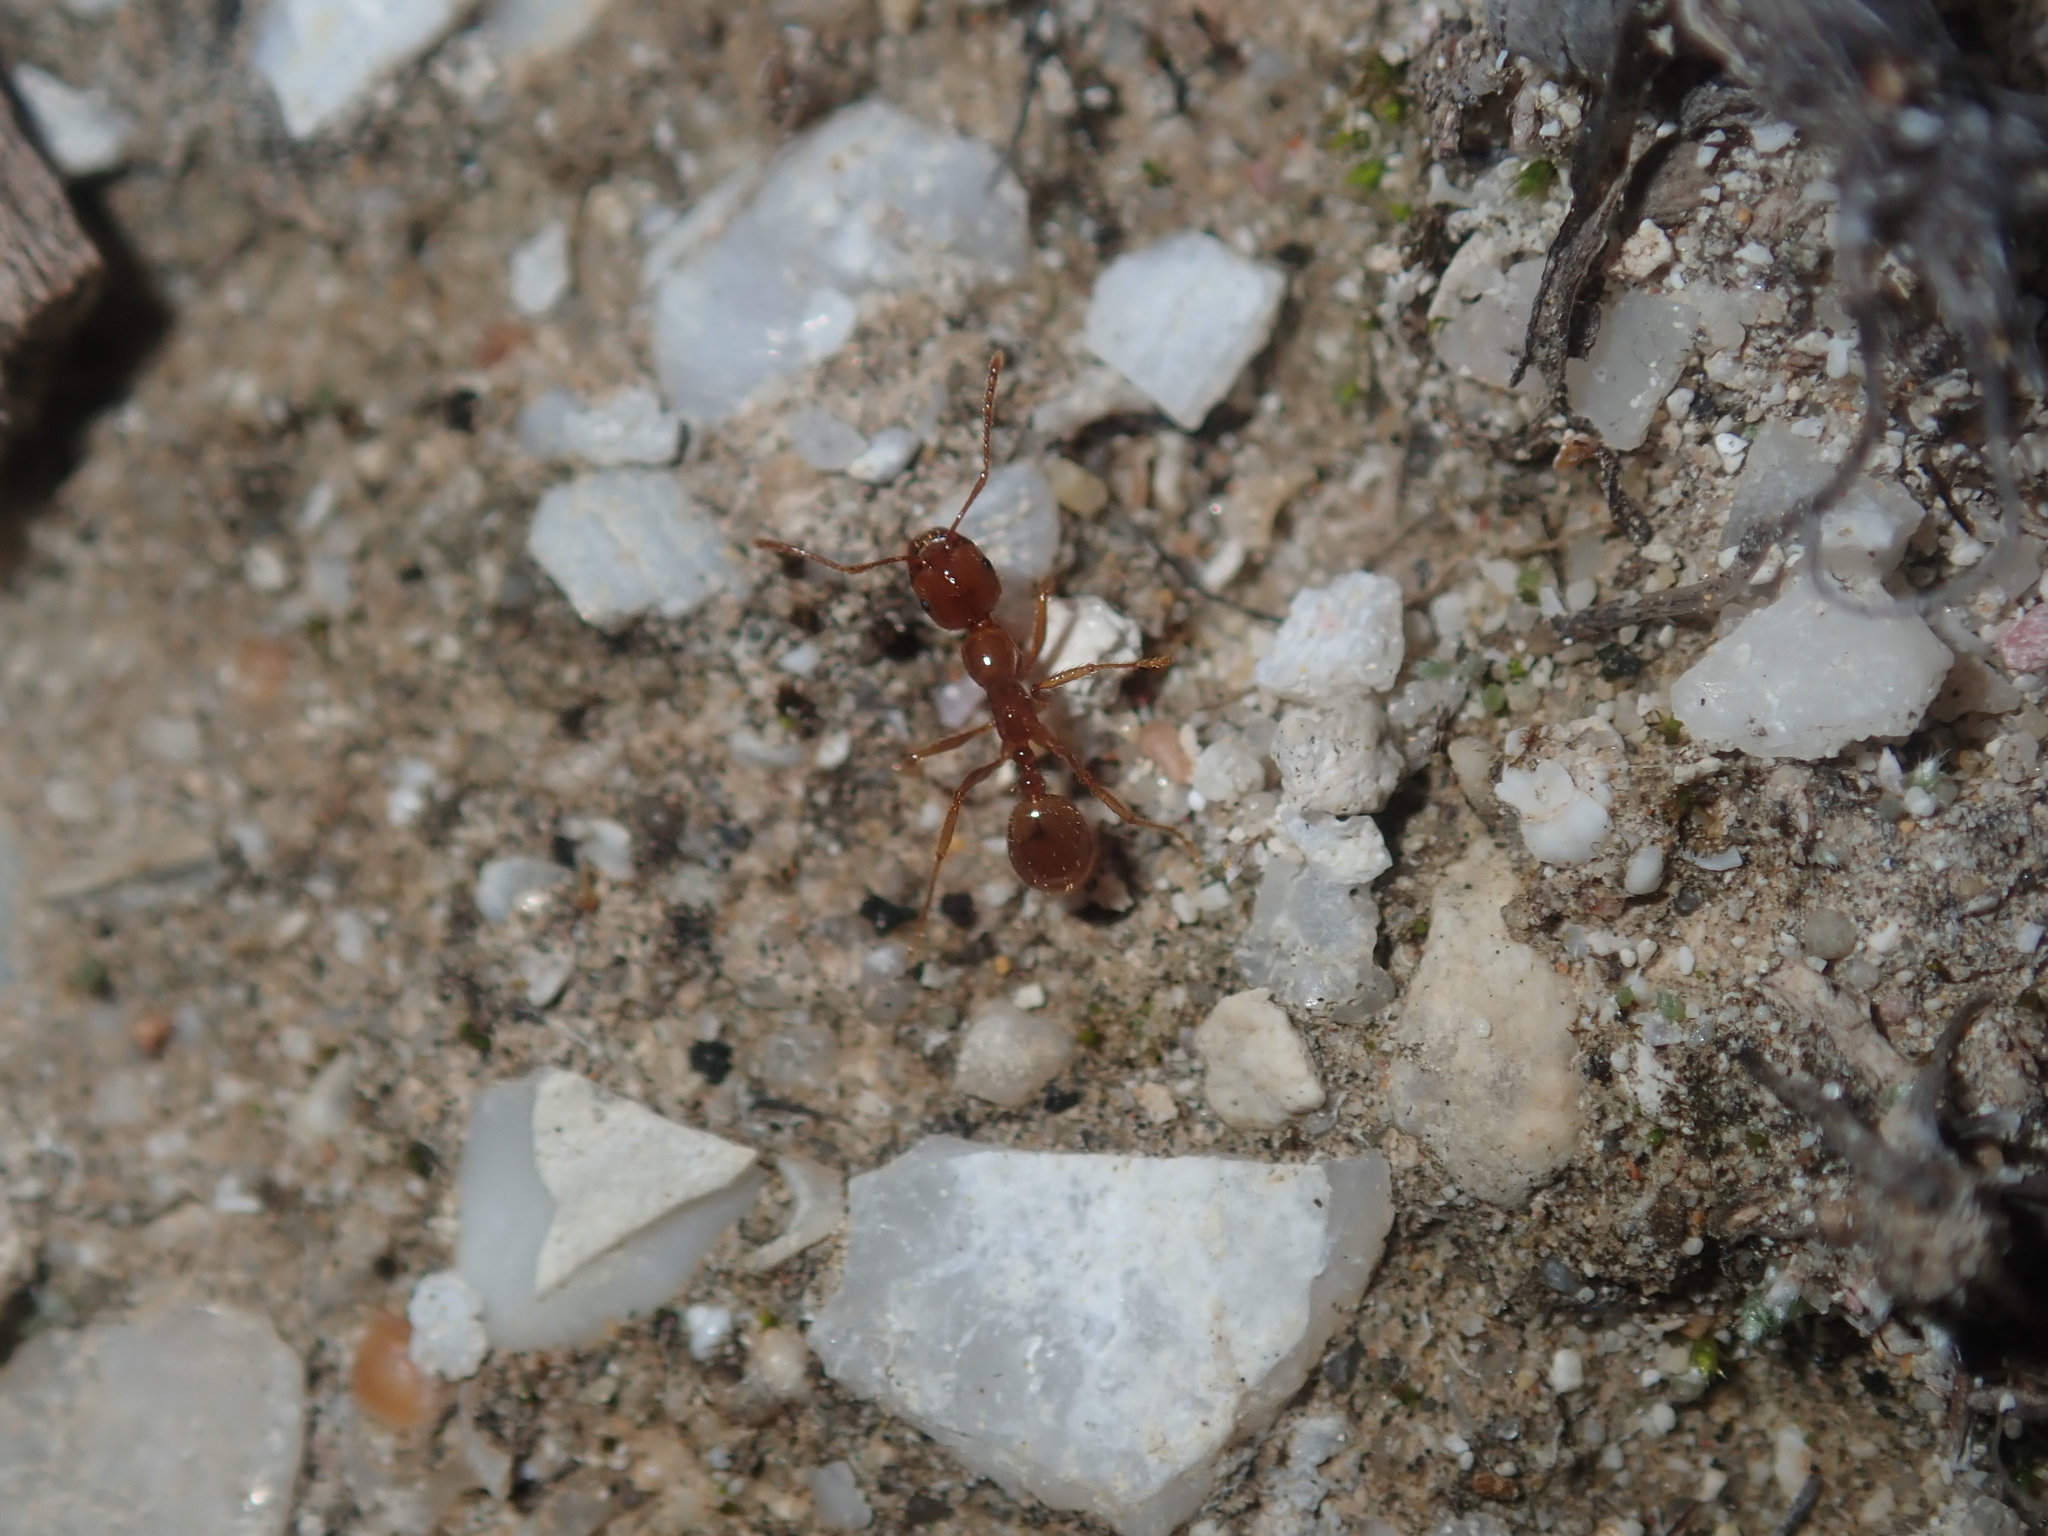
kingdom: Animalia
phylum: Arthropoda
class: Insecta
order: Hymenoptera
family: Formicidae
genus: Aphaenogaster
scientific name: Aphaenogaster poultoni
